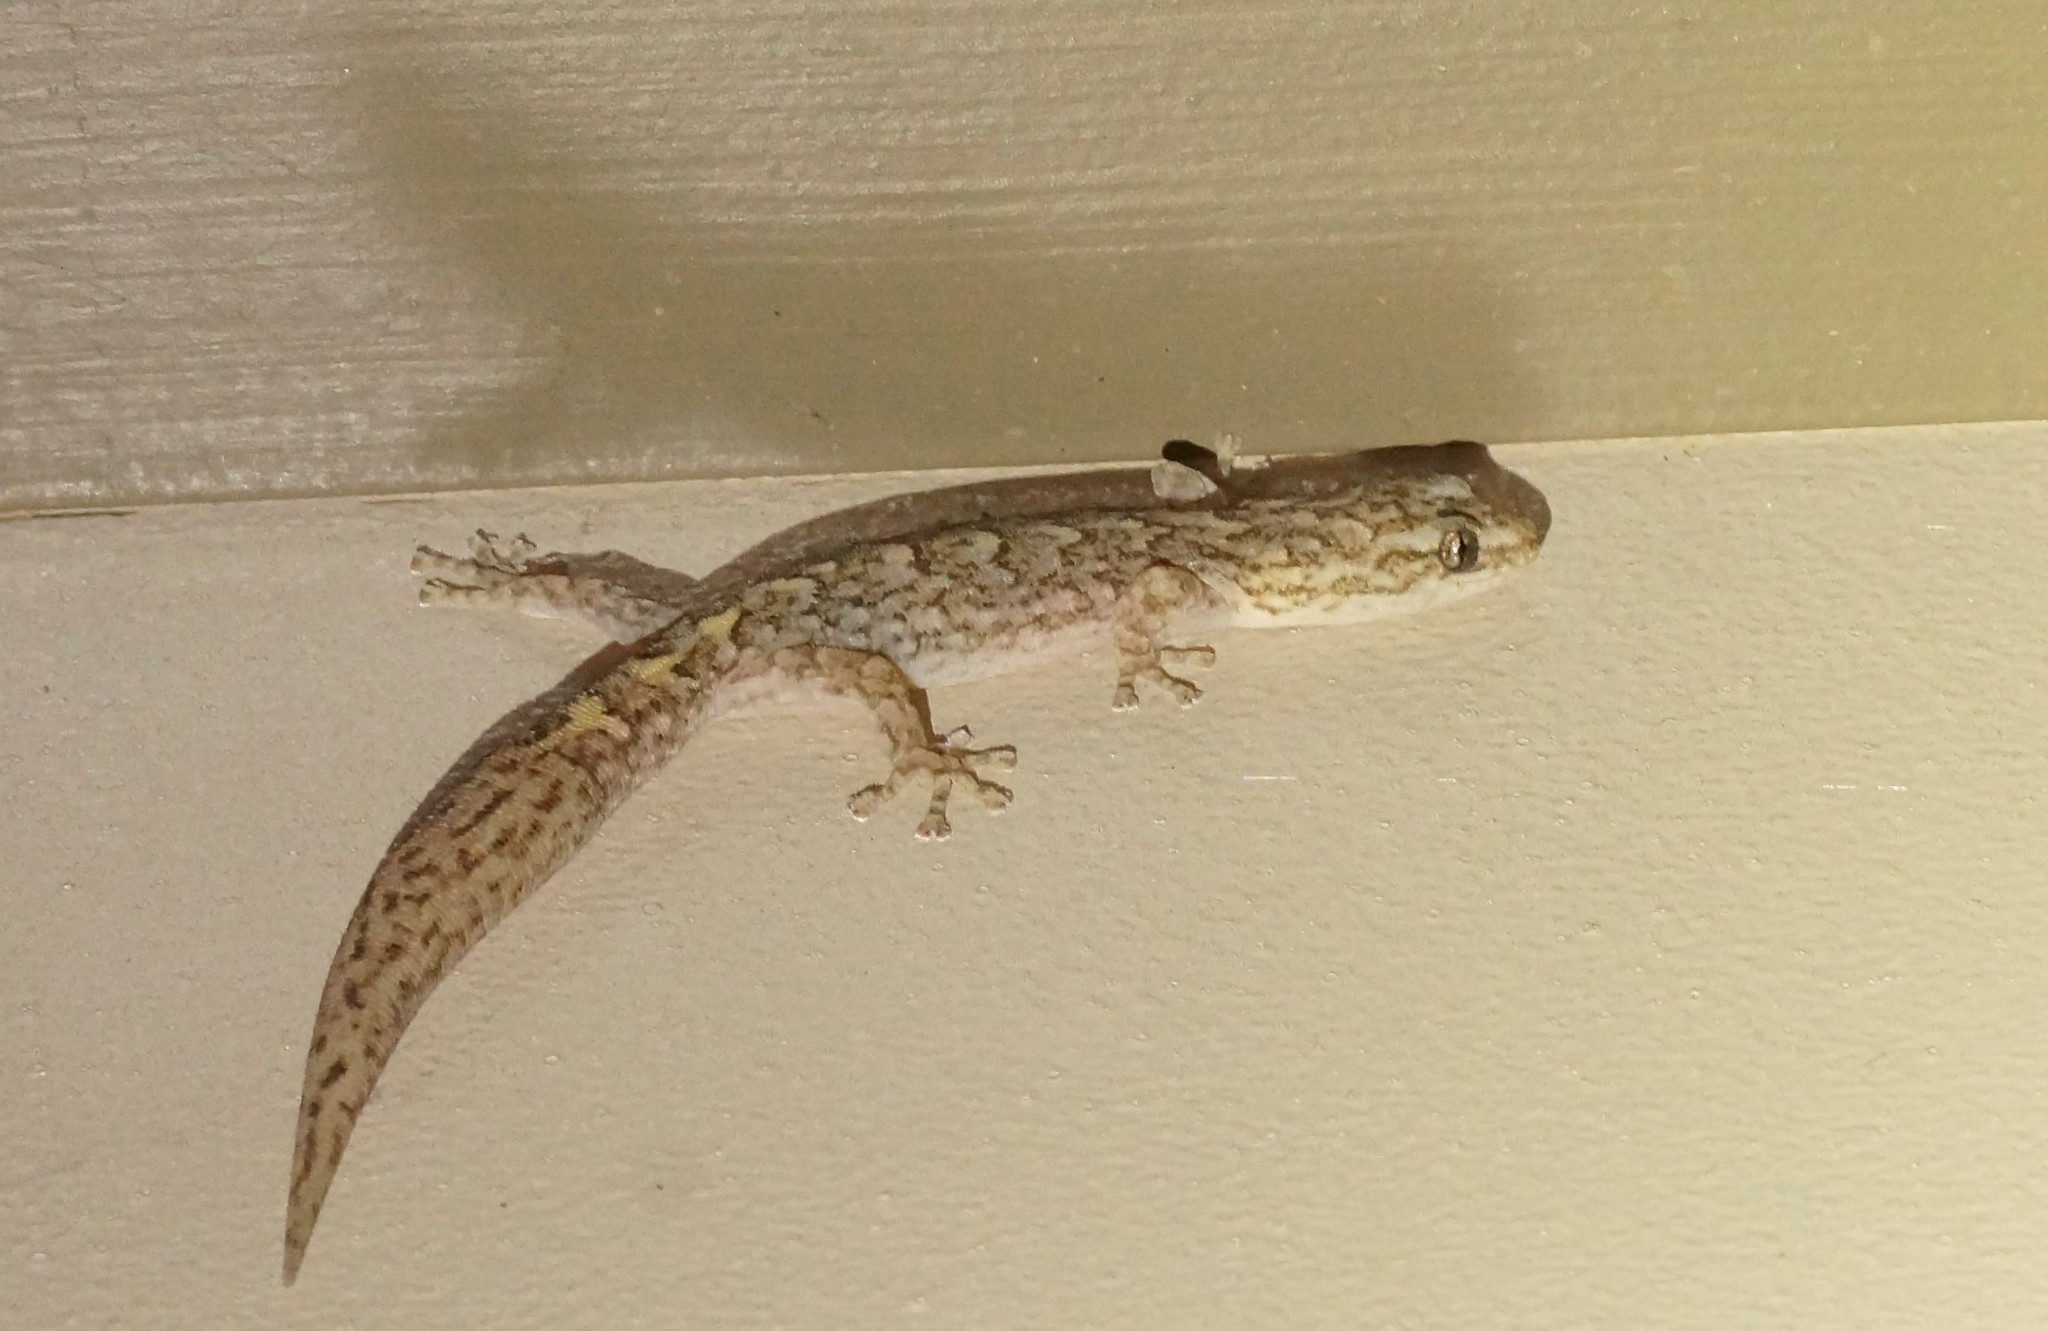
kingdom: Animalia
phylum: Chordata
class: Squamata
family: Gekkonidae
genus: Christinus
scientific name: Christinus marmoratus
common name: Marbled gecko
